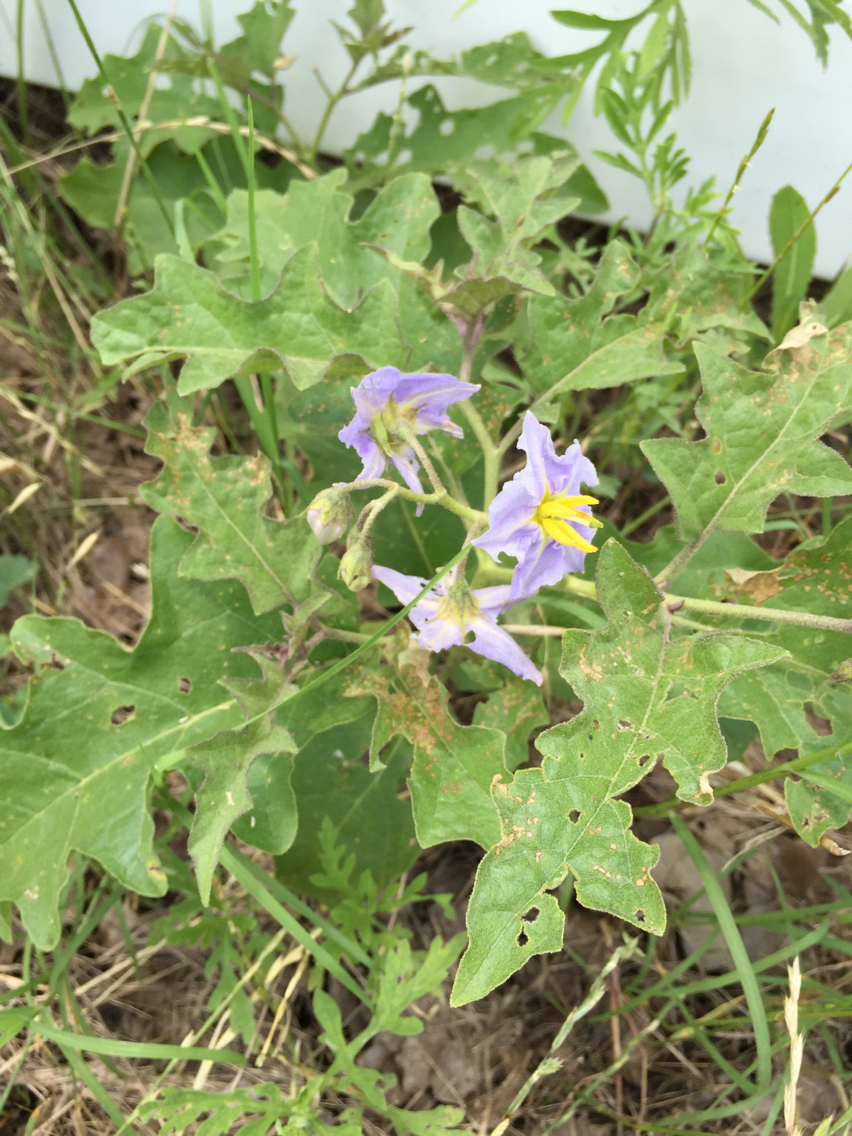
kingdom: Plantae
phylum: Tracheophyta
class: Magnoliopsida
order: Solanales
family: Solanaceae
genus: Solanum
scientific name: Solanum dimidiatum
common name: Carolina horse-nettle
